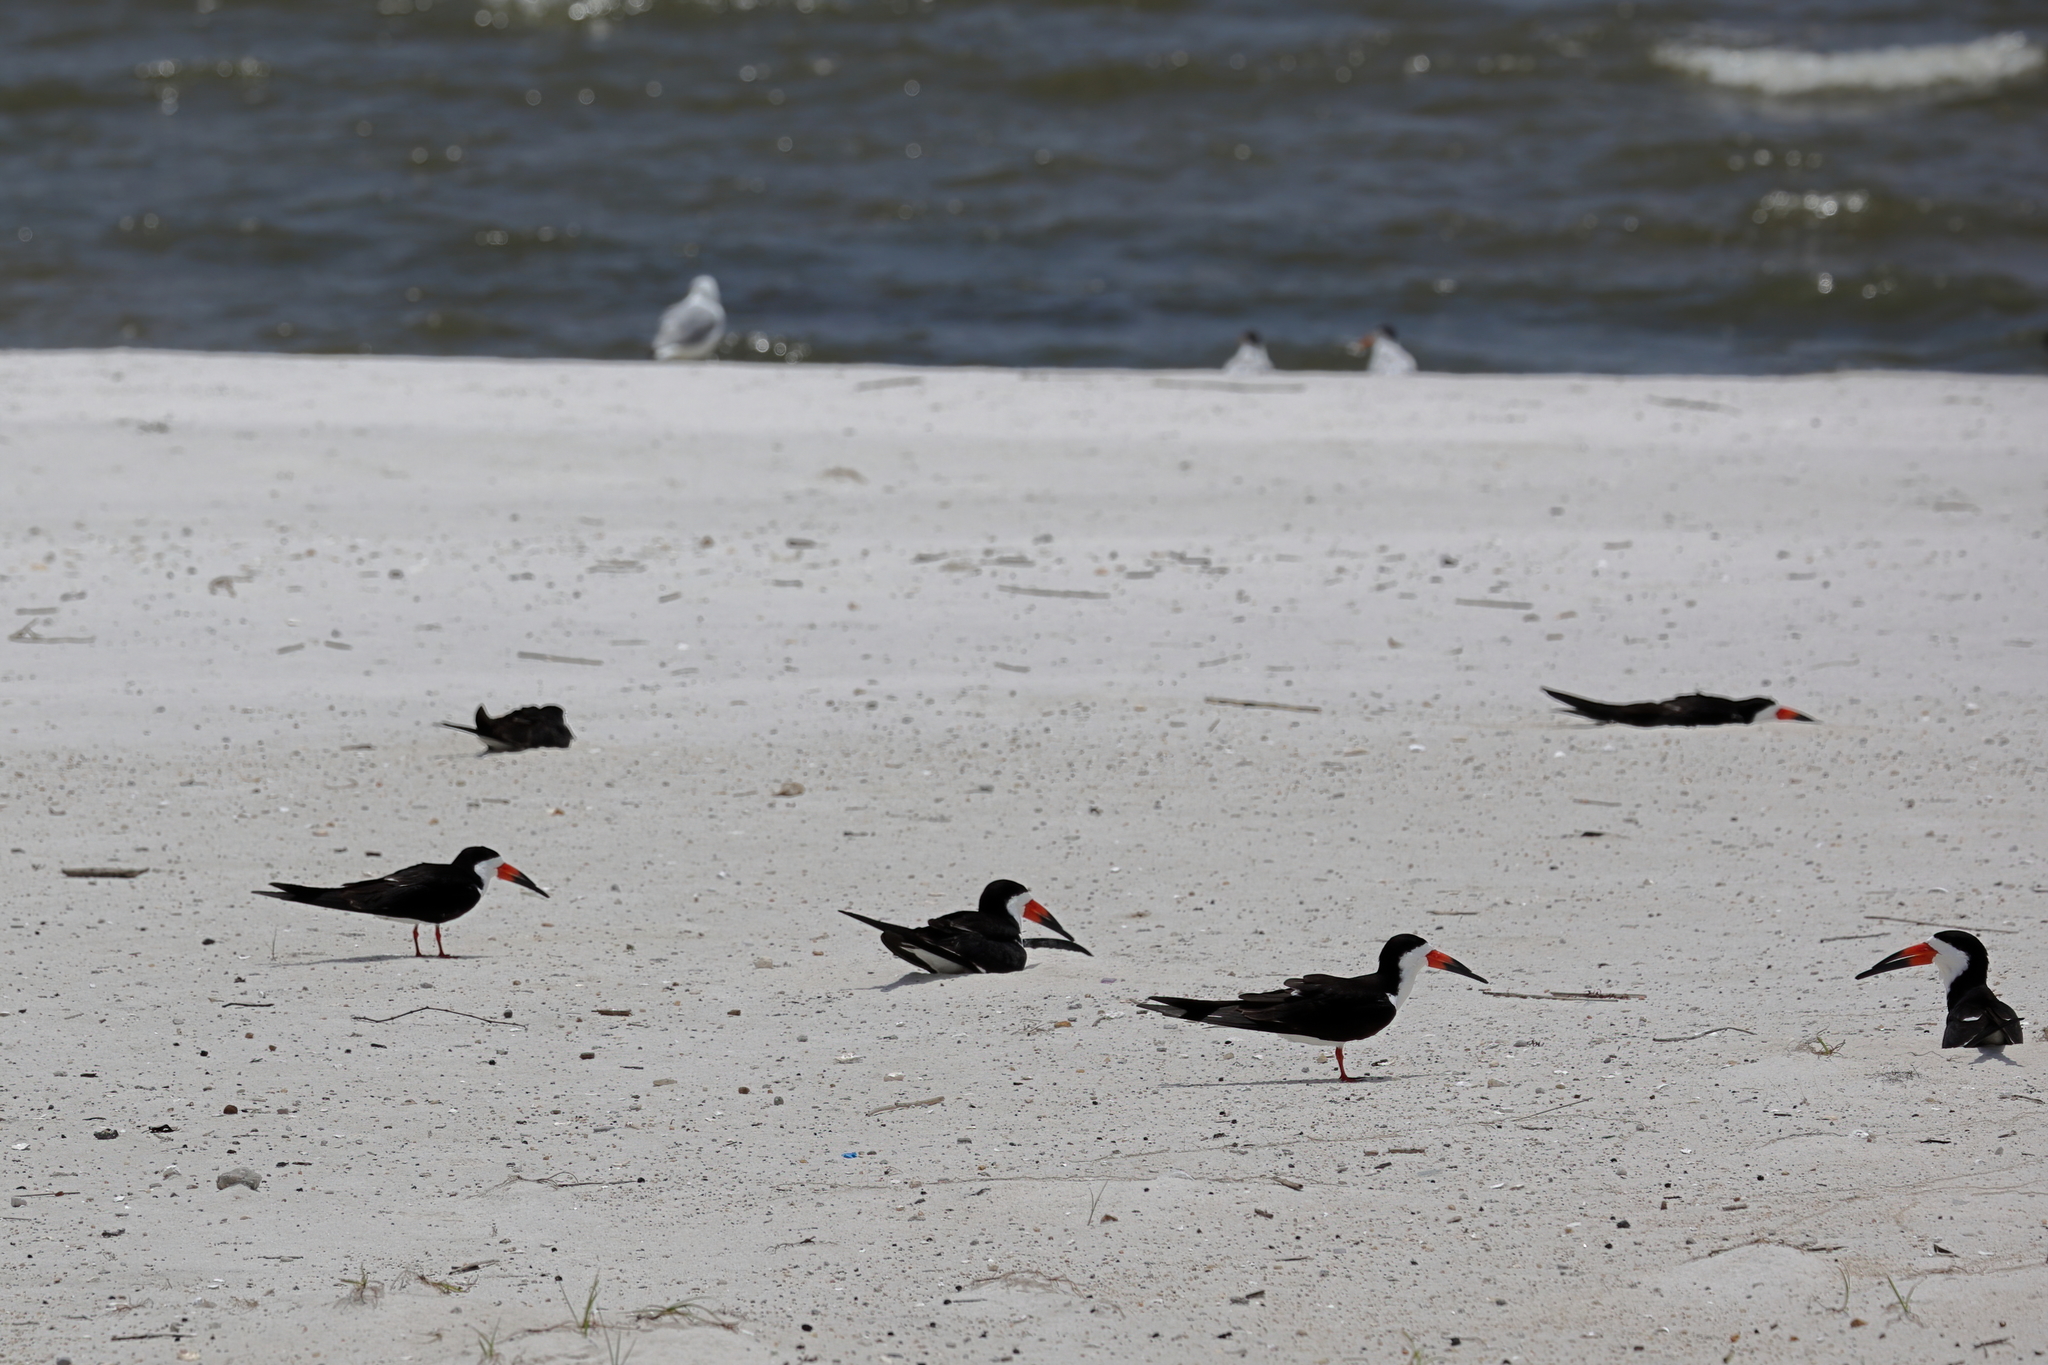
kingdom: Animalia
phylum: Chordata
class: Aves
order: Charadriiformes
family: Laridae
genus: Rynchops
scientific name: Rynchops niger
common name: Black skimmer
